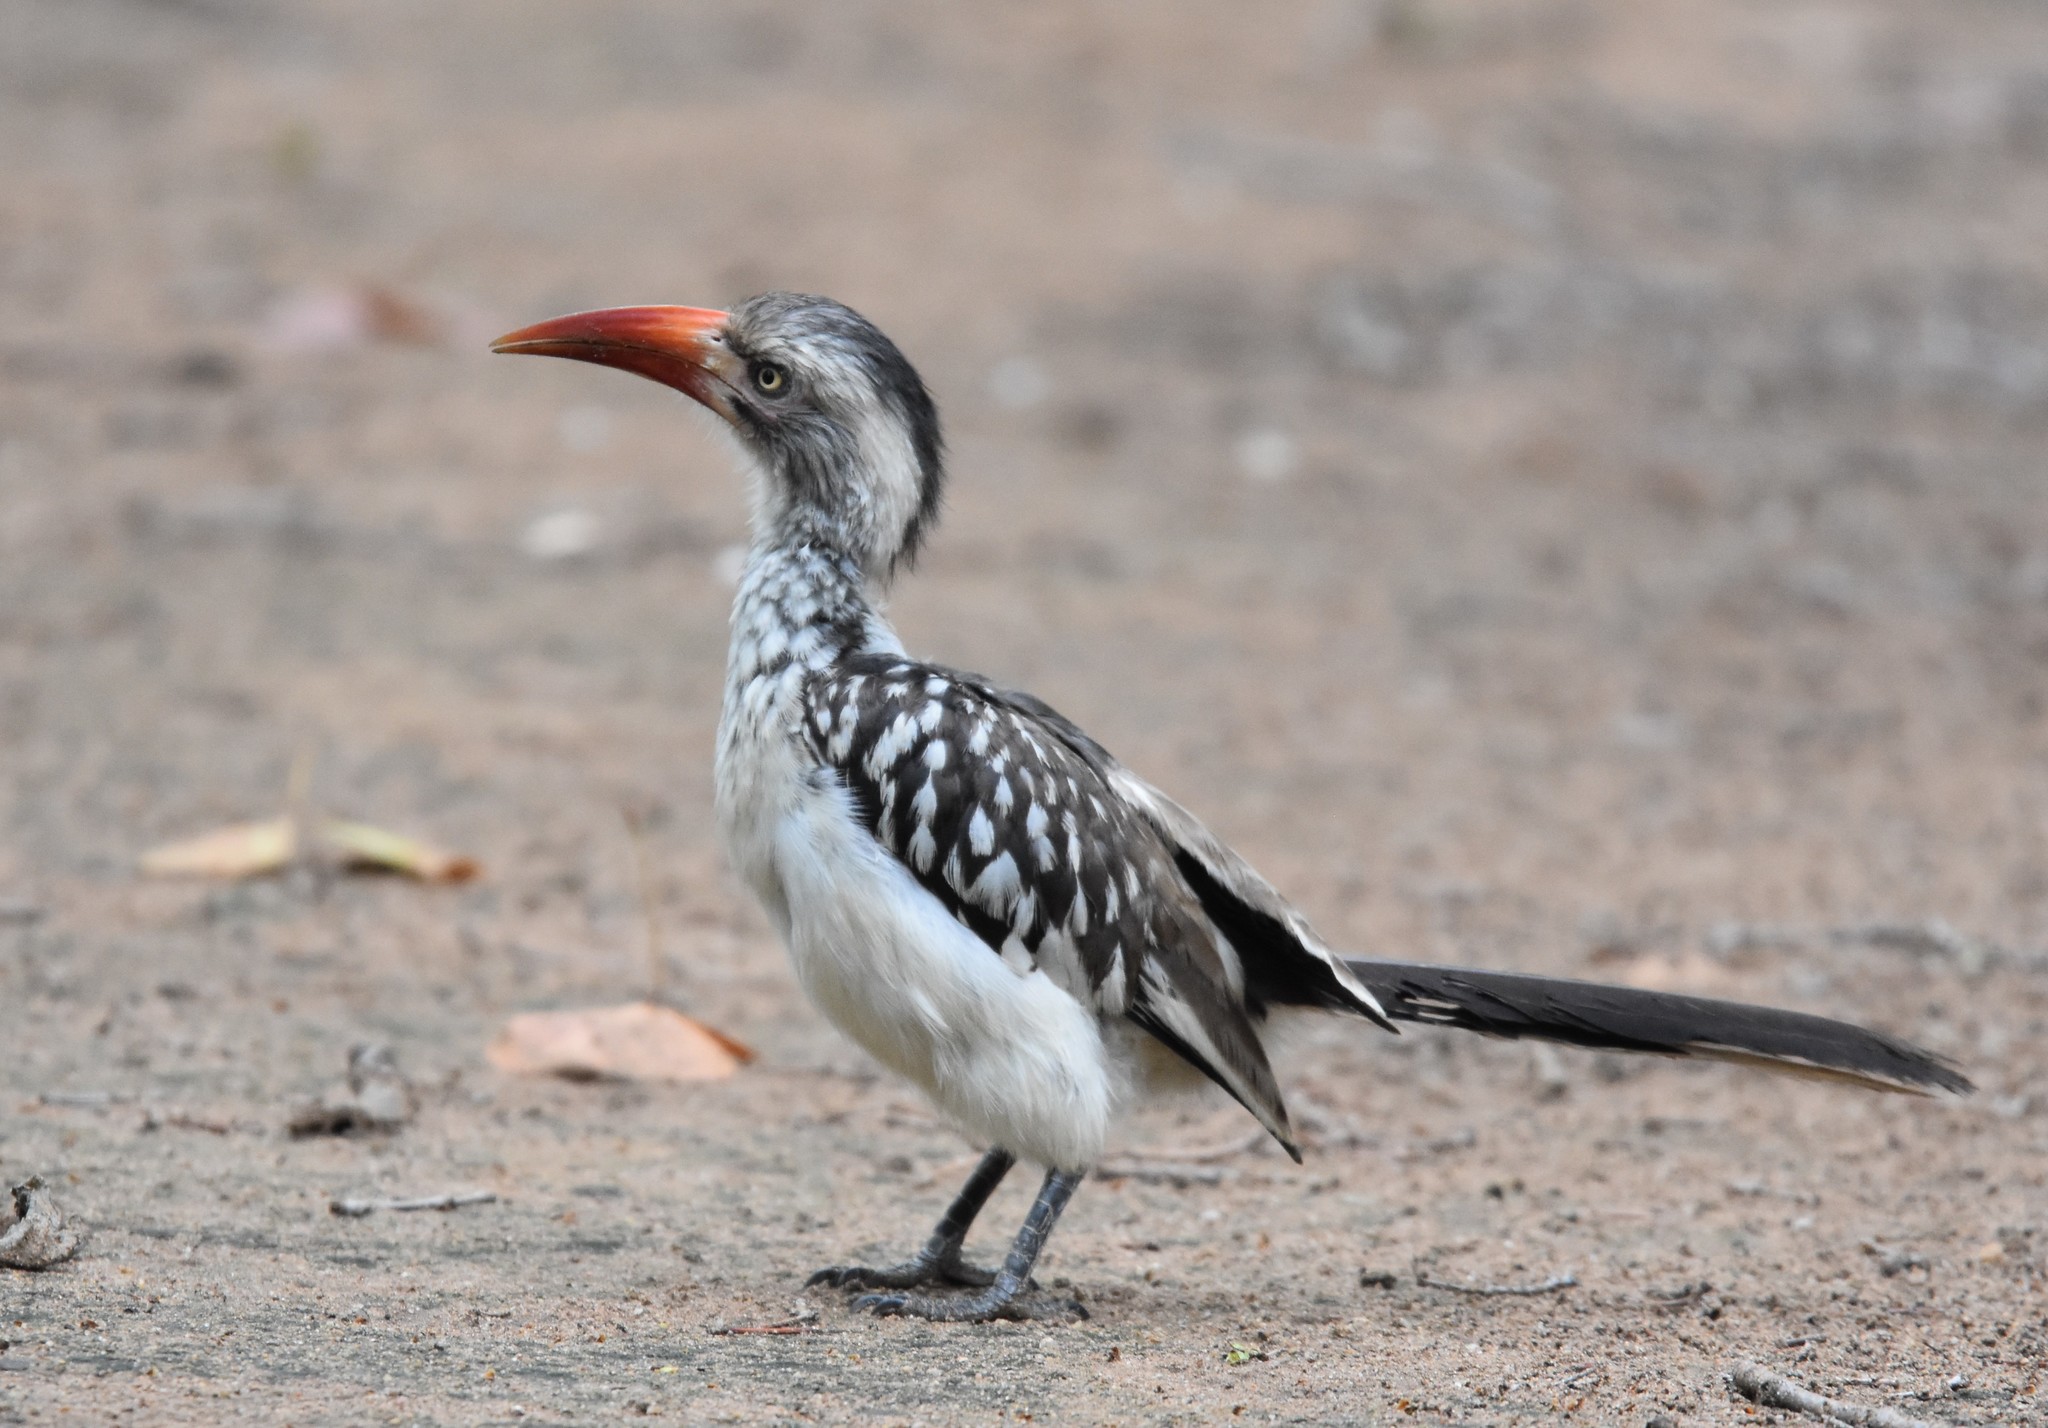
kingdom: Animalia
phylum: Chordata
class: Aves
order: Bucerotiformes
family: Bucerotidae
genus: Tockus
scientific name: Tockus rufirostris
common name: Southern red-billed hornbill
